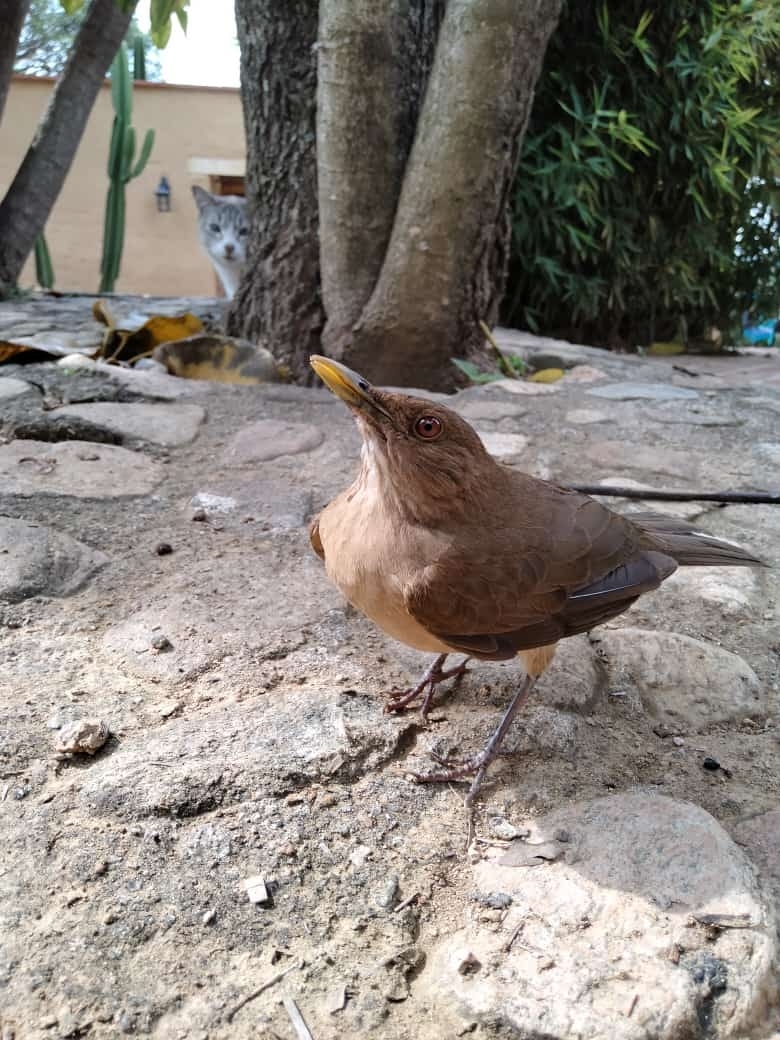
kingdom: Animalia
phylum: Chordata
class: Aves
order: Passeriformes
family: Turdidae
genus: Turdus
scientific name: Turdus grayi
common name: Clay-colored thrush
